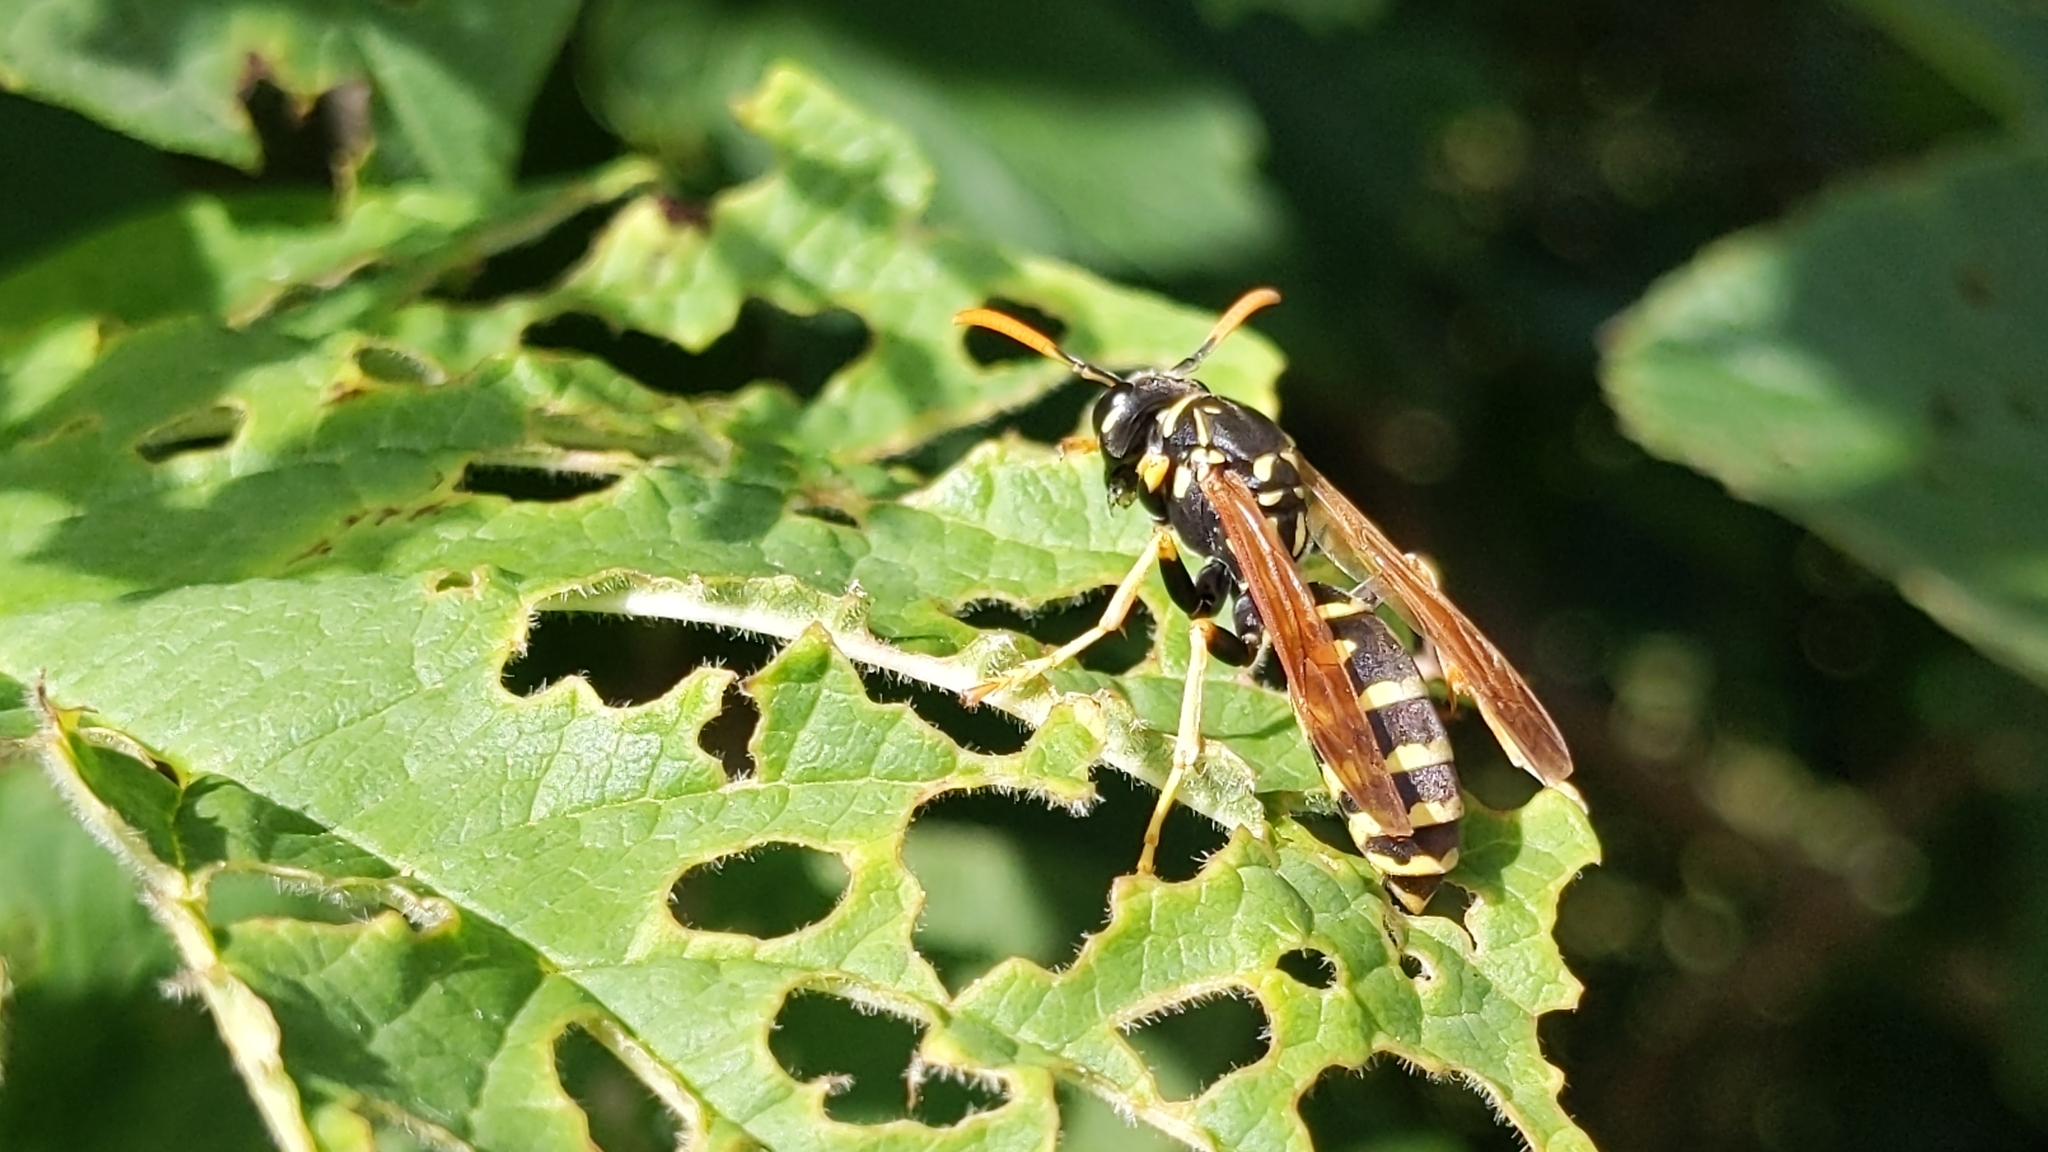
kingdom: Animalia
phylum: Arthropoda
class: Insecta
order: Hymenoptera
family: Eumenidae
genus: Polistes
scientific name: Polistes dominula
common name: Paper wasp
